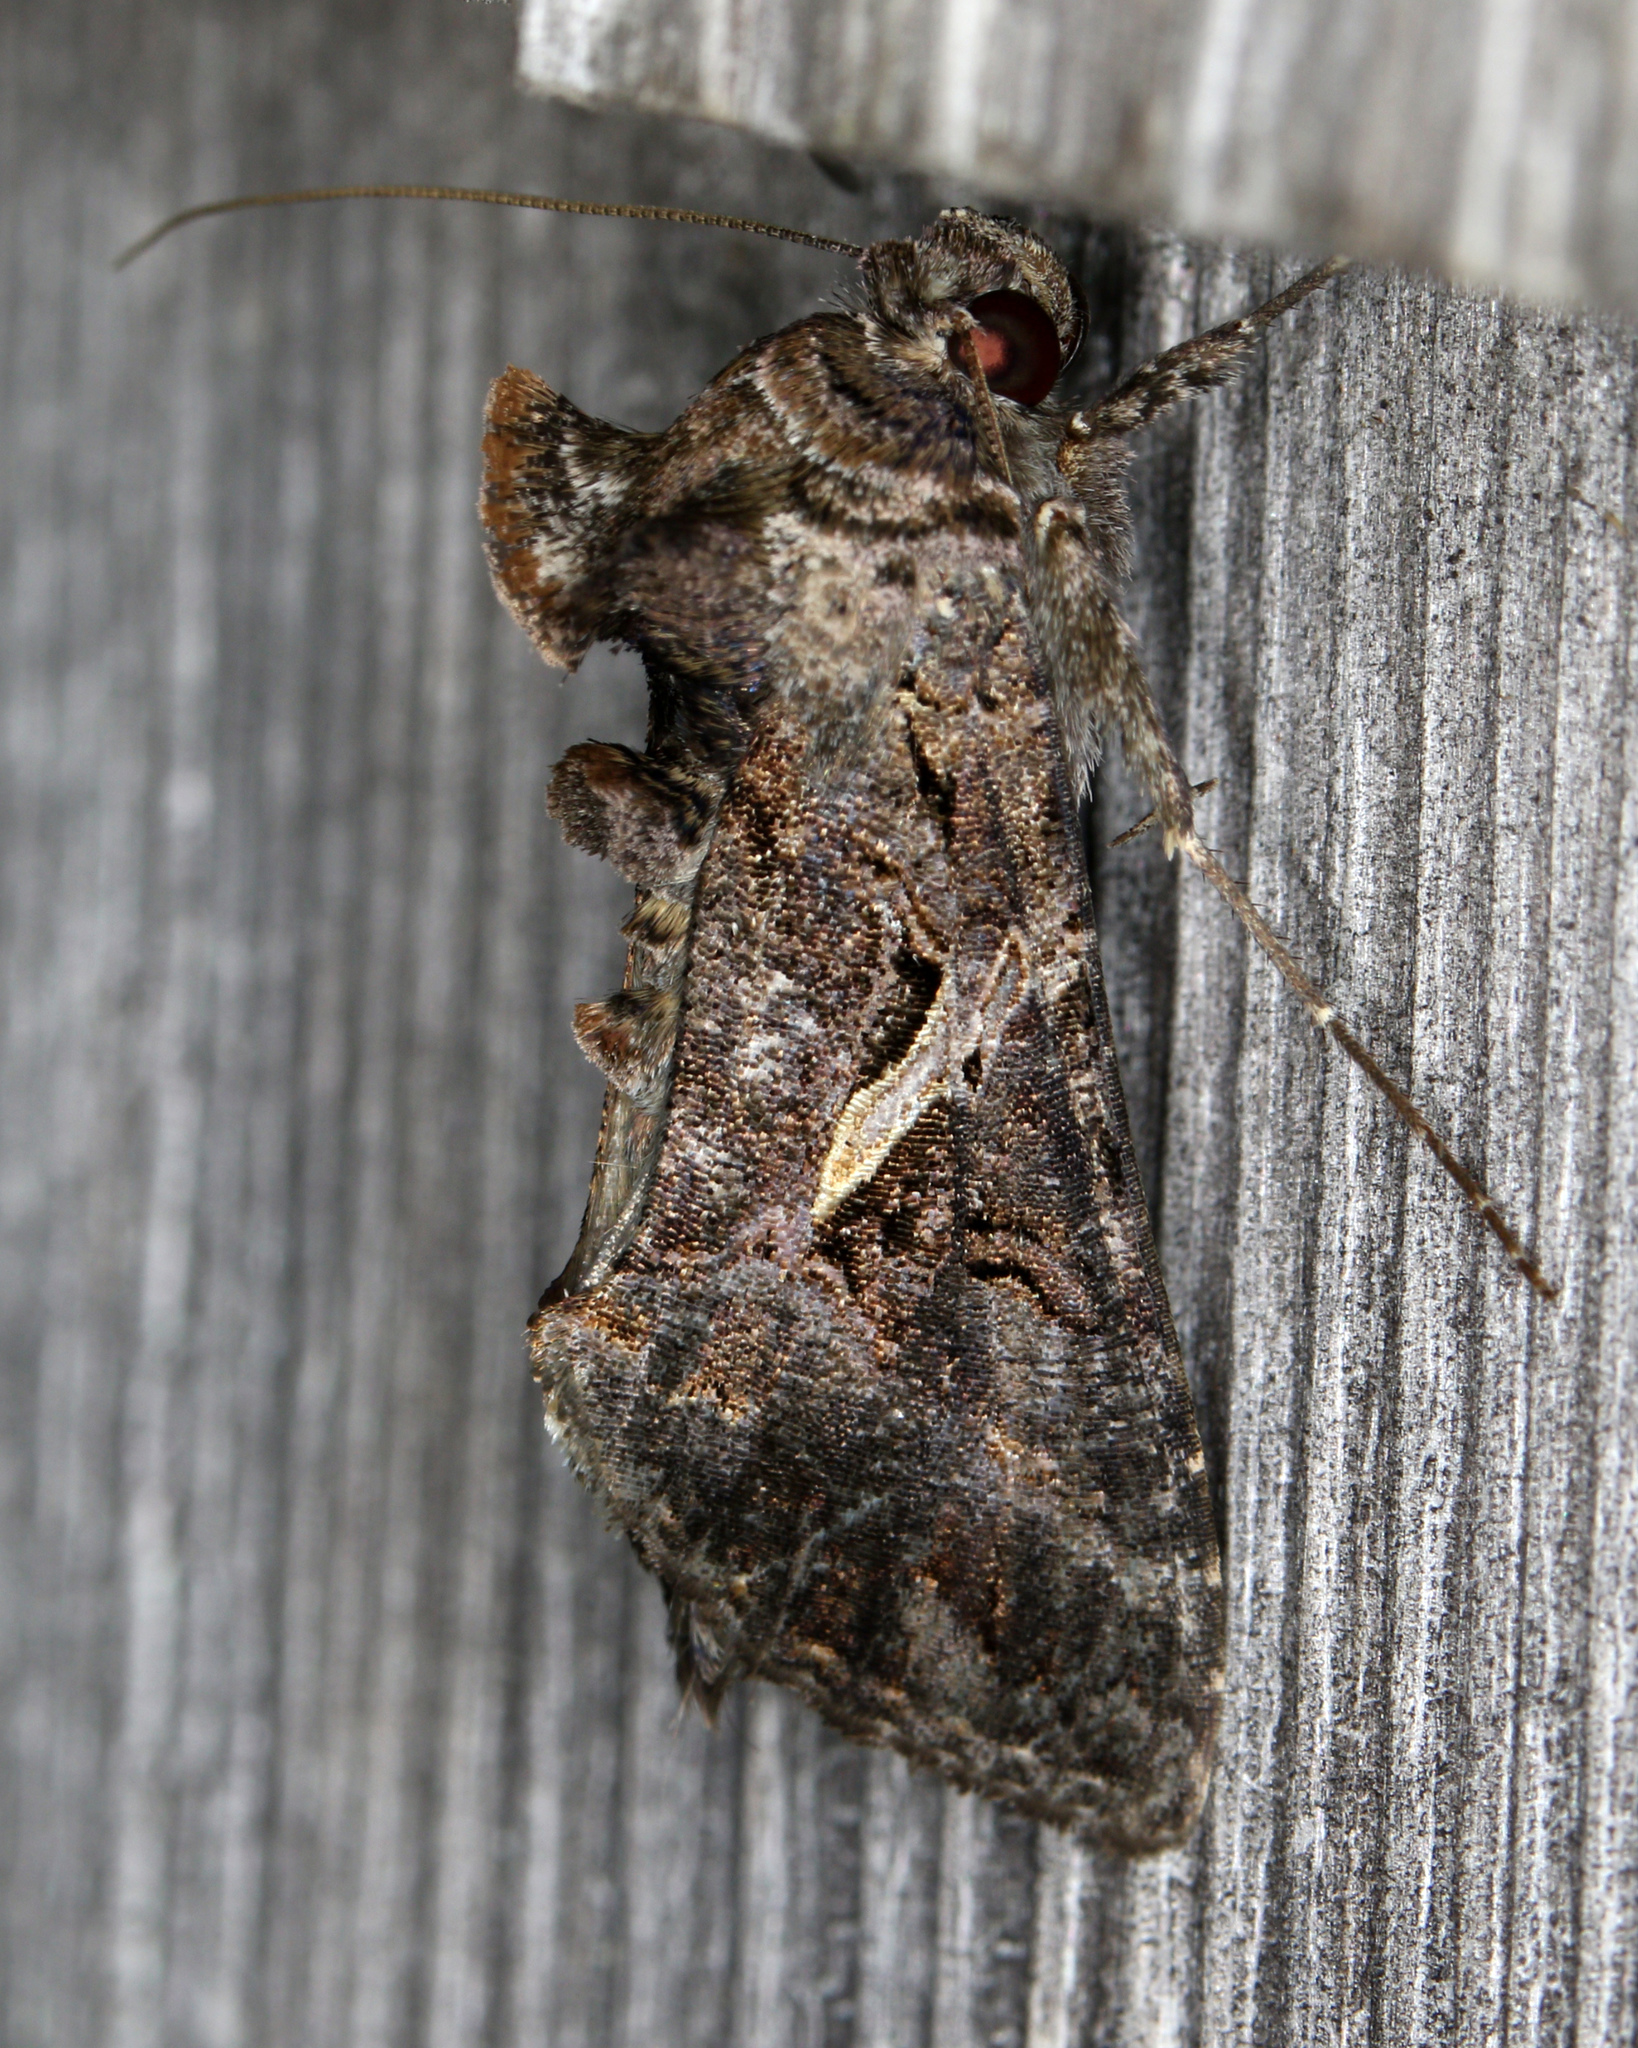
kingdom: Animalia
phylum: Arthropoda
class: Insecta
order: Lepidoptera
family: Noctuidae
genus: Ctenoplusia
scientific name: Ctenoplusia oxygramma
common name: Sharp-stigma looper moth
